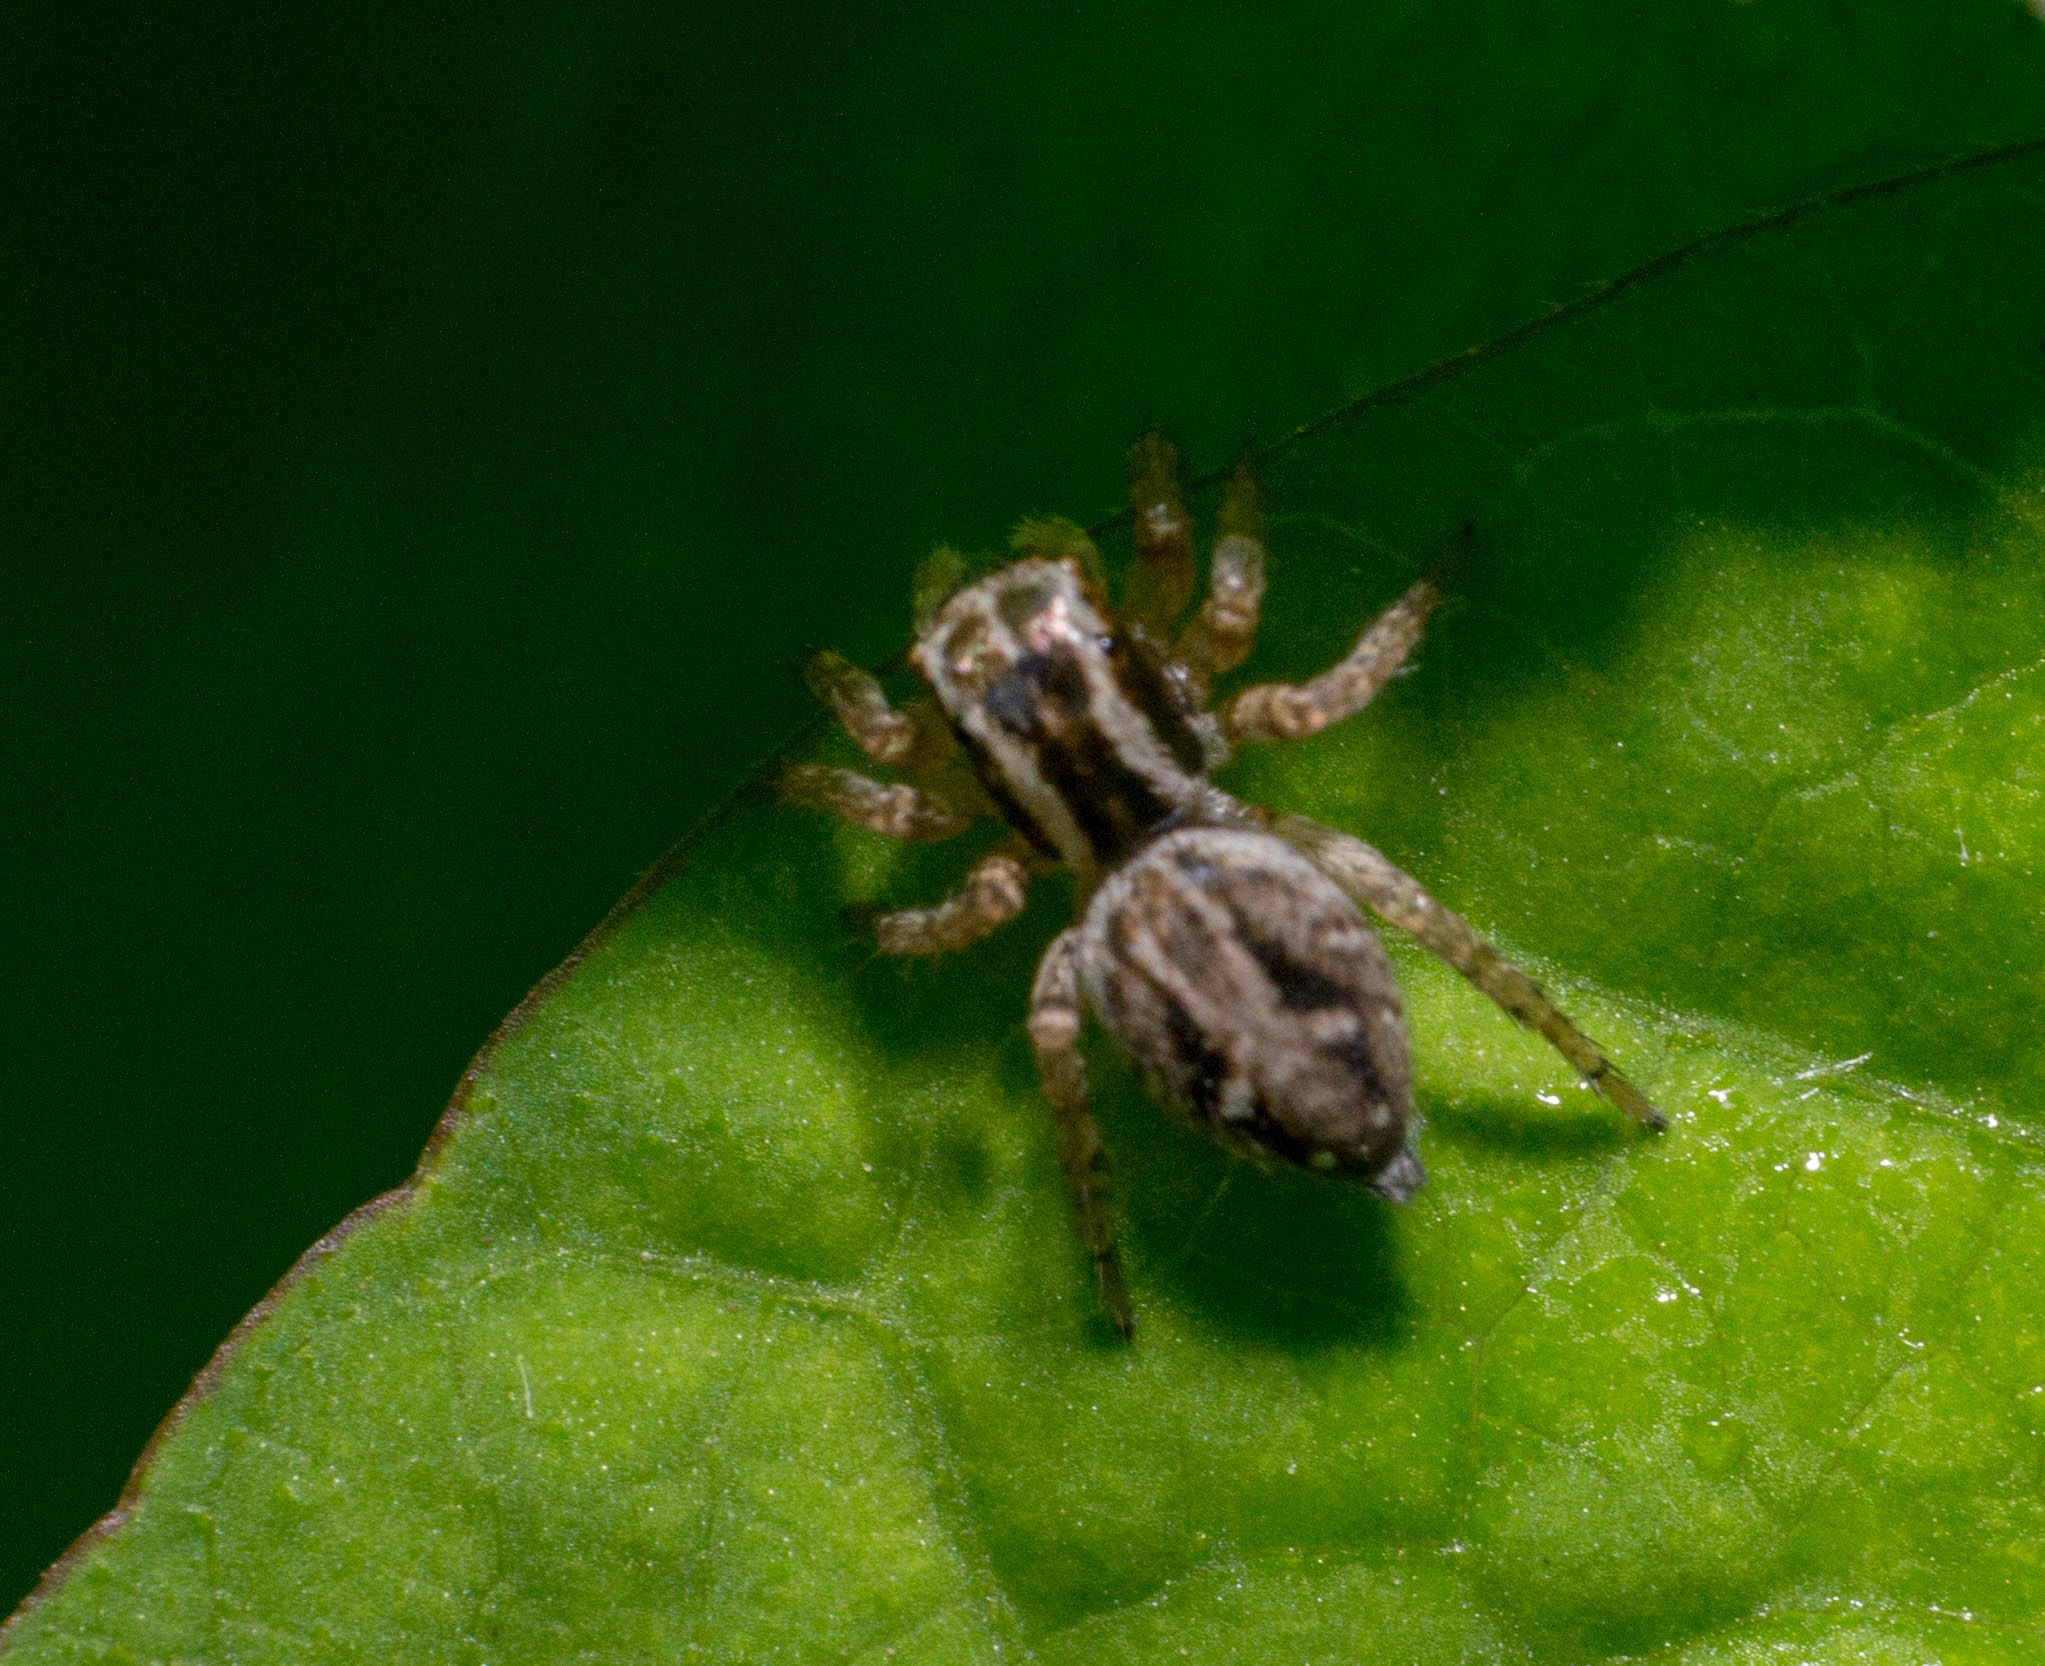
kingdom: Animalia
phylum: Arthropoda
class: Arachnida
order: Araneae
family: Salticidae
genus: Aphirape
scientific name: Aphirape
